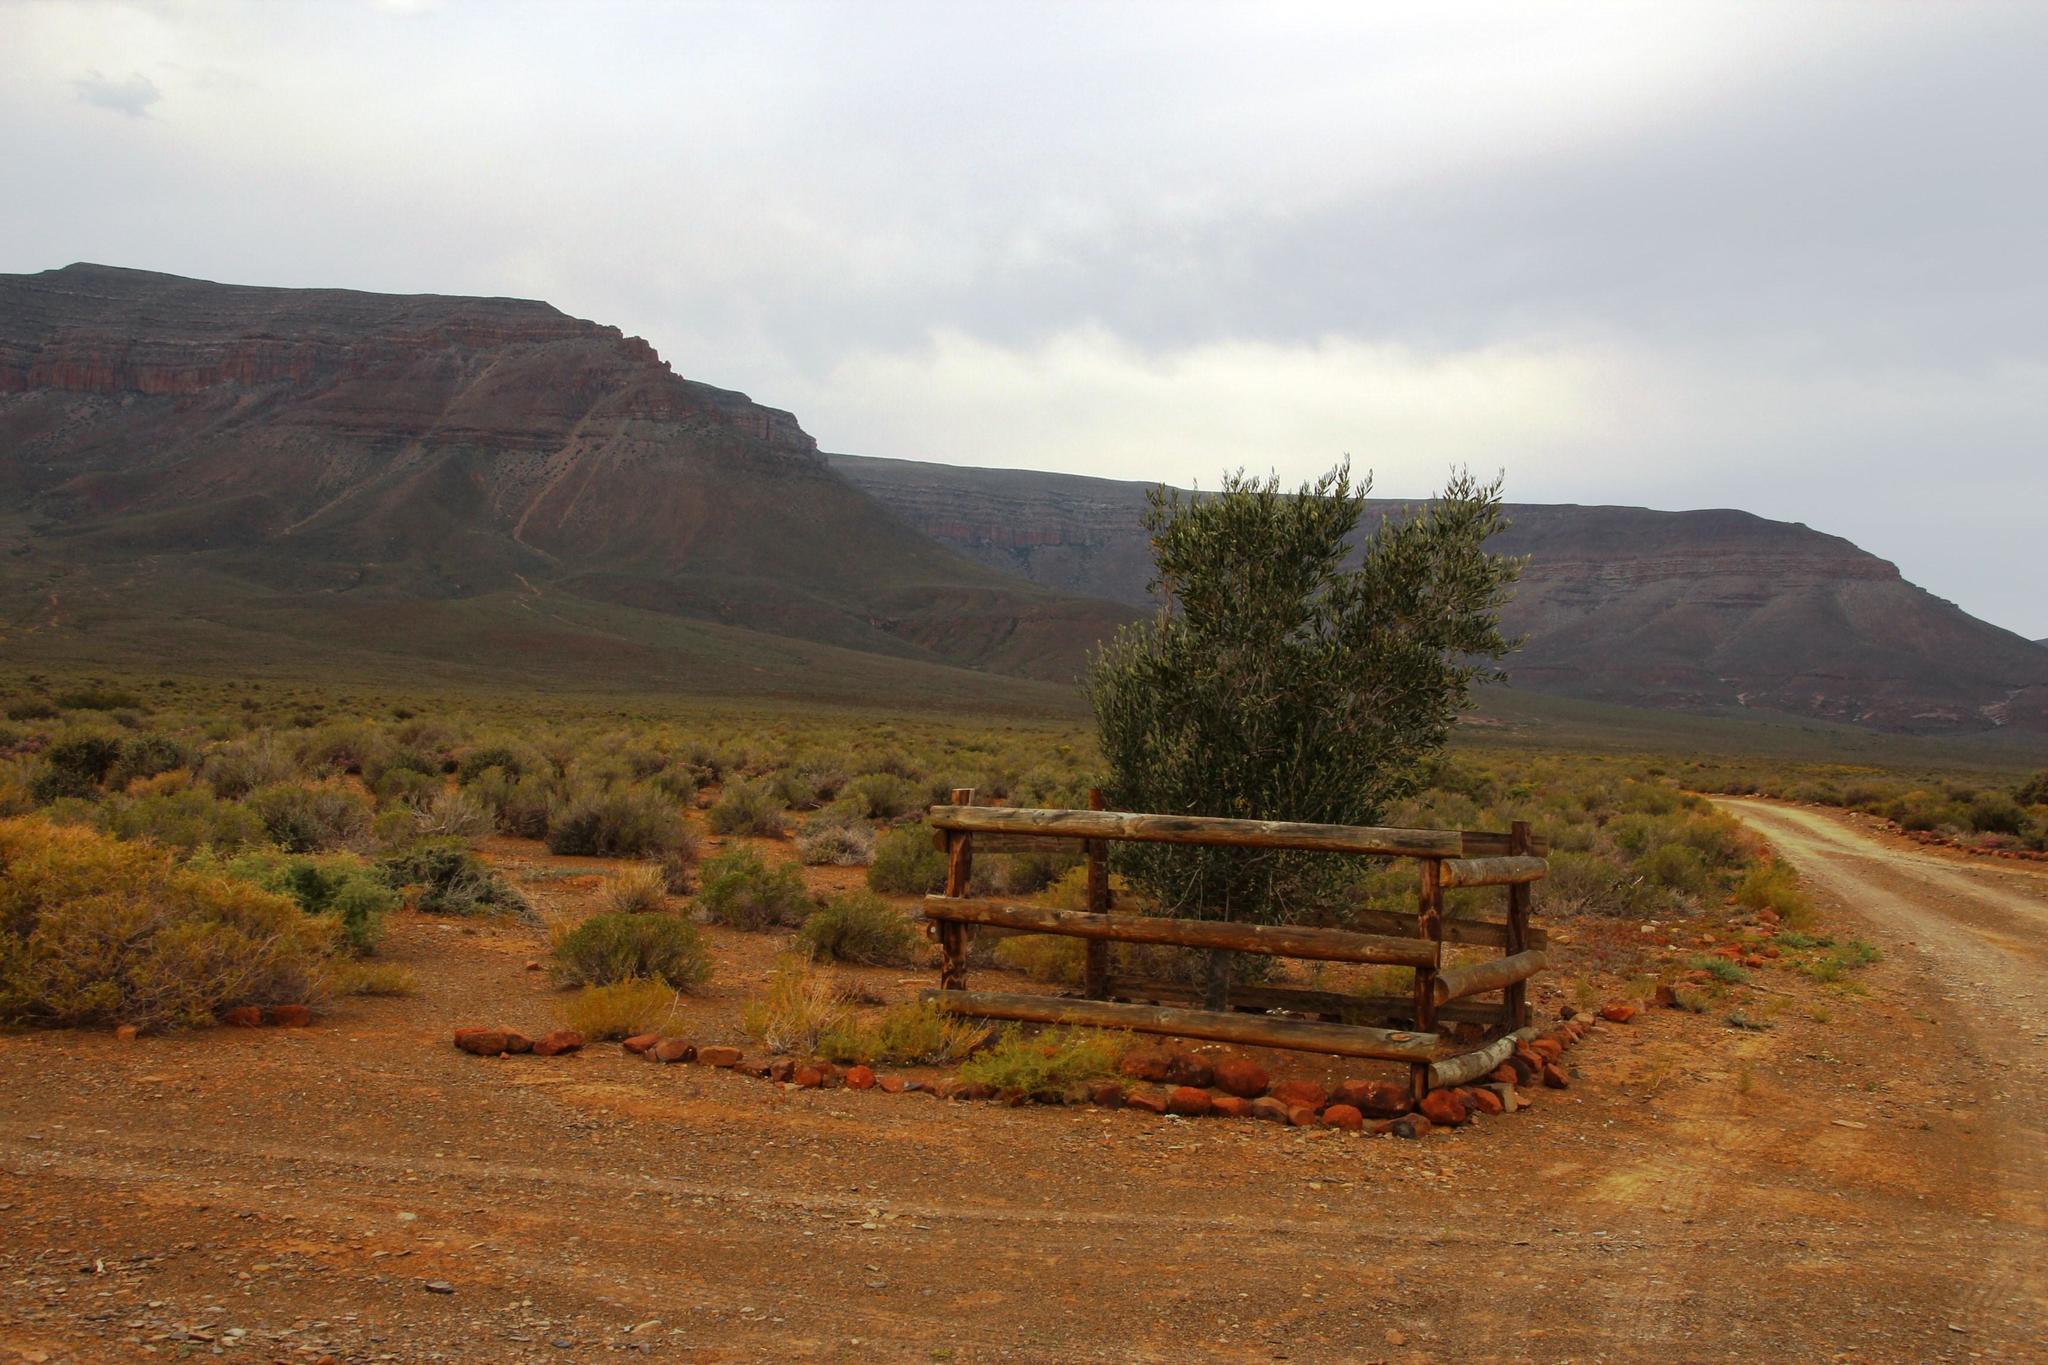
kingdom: Plantae
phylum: Tracheophyta
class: Magnoliopsida
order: Lamiales
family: Oleaceae
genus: Olea
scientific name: Olea europaea
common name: Olive
